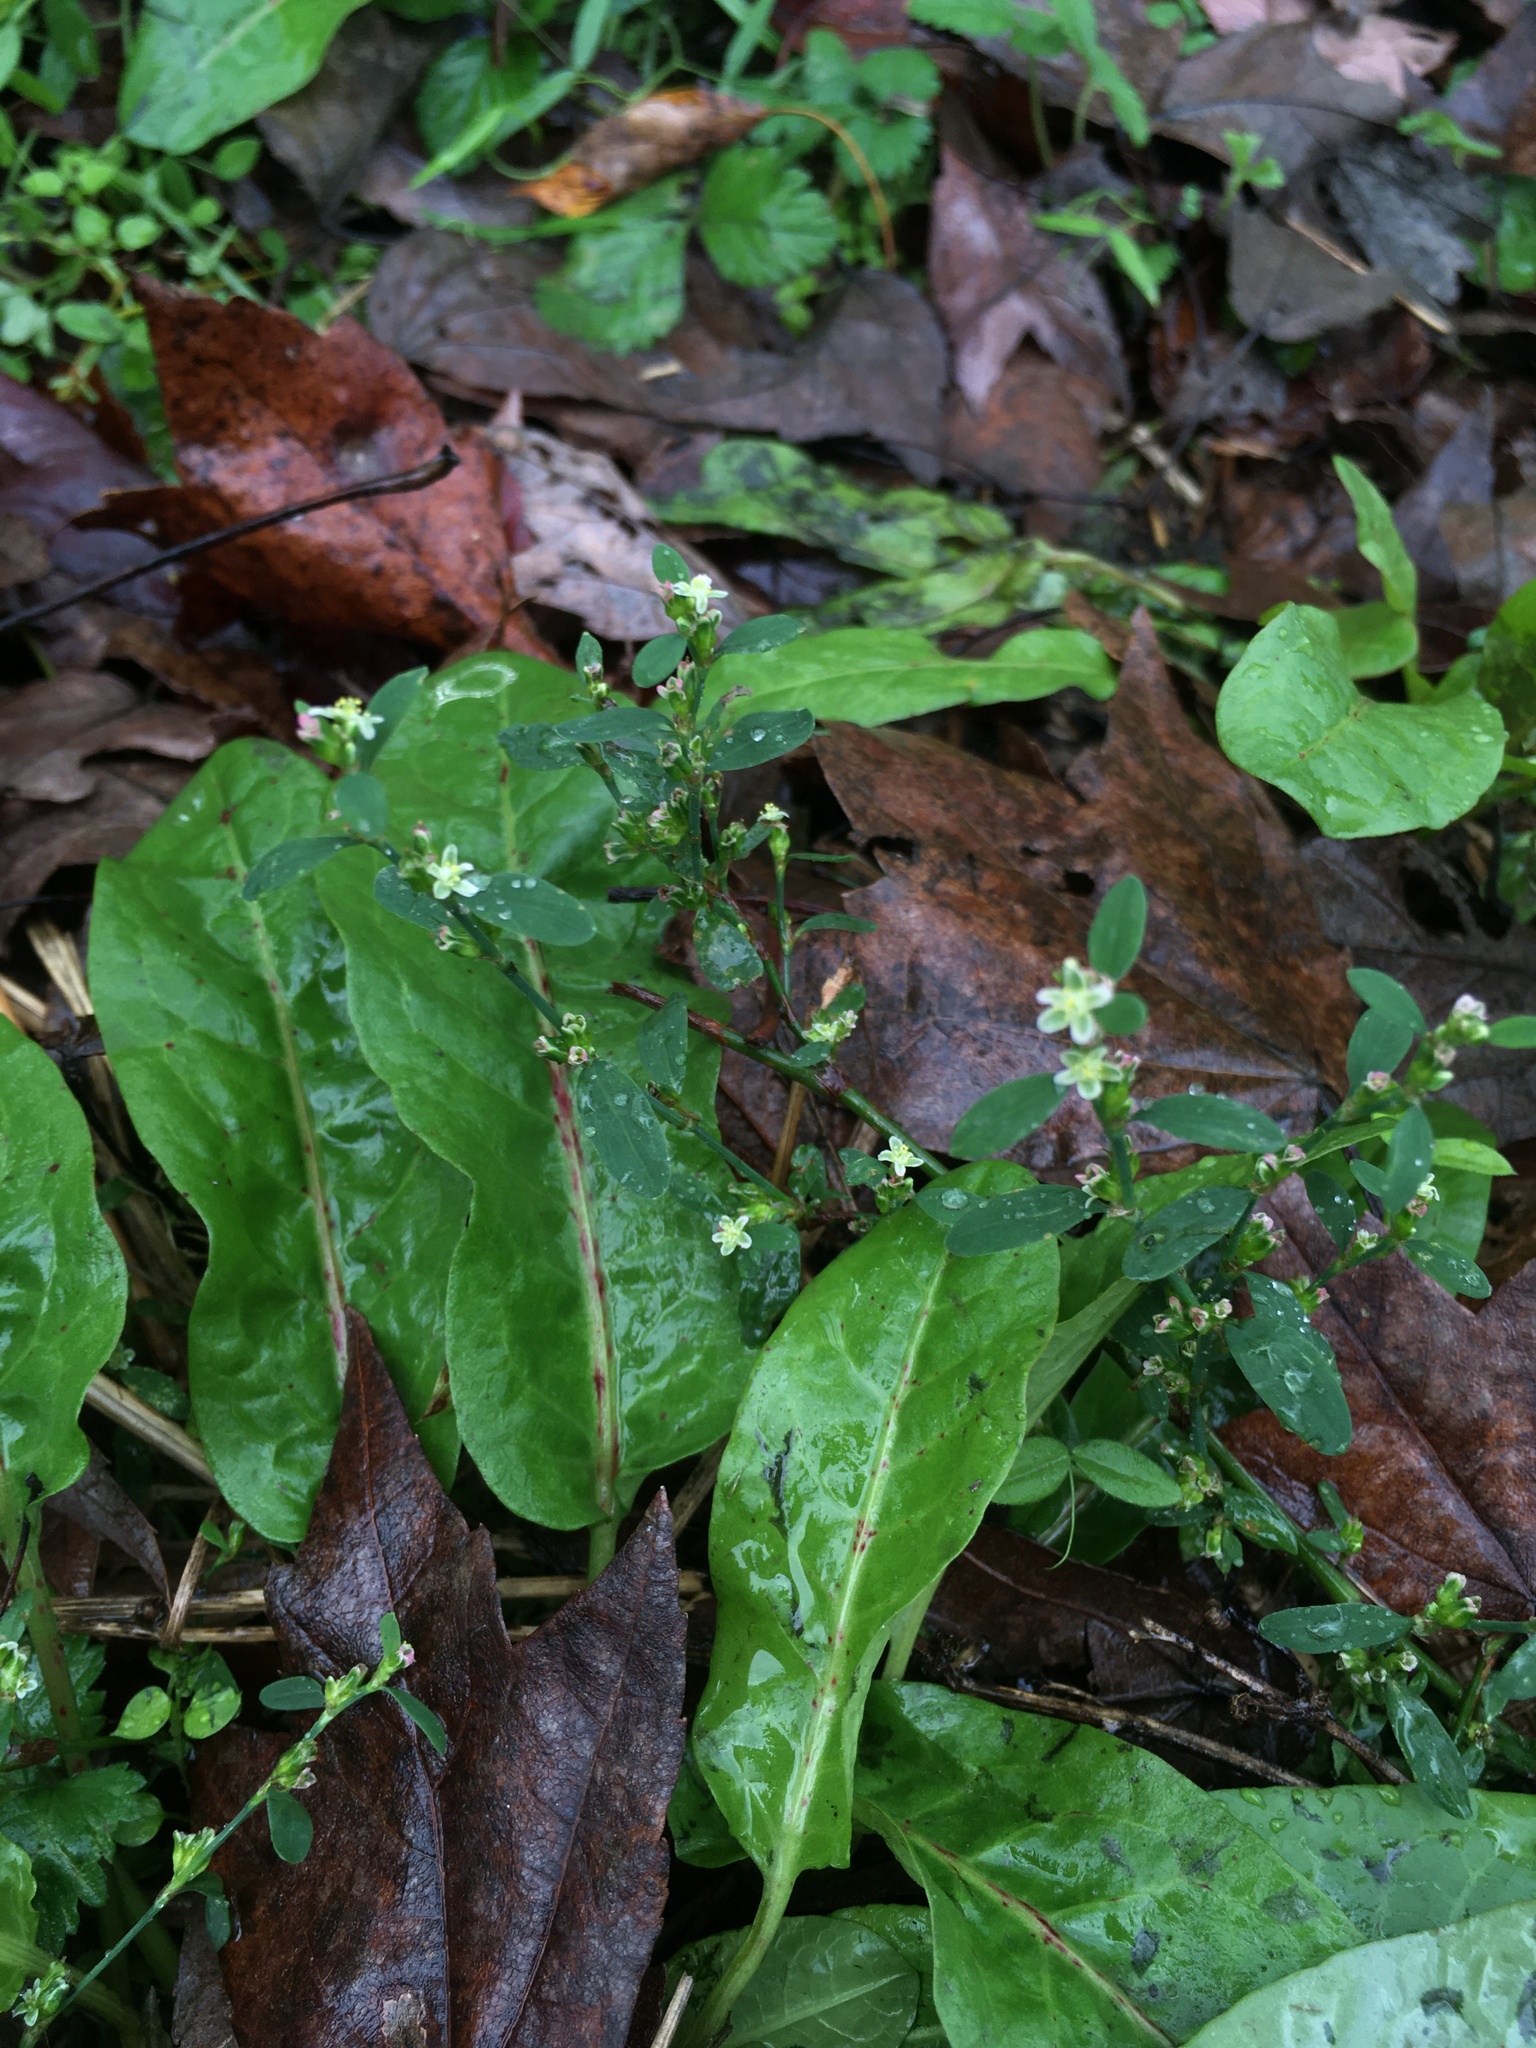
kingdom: Plantae
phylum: Tracheophyta
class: Magnoliopsida
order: Caryophyllales
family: Polygonaceae
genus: Polygonum
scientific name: Polygonum aviculare
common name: Prostrate knotweed
